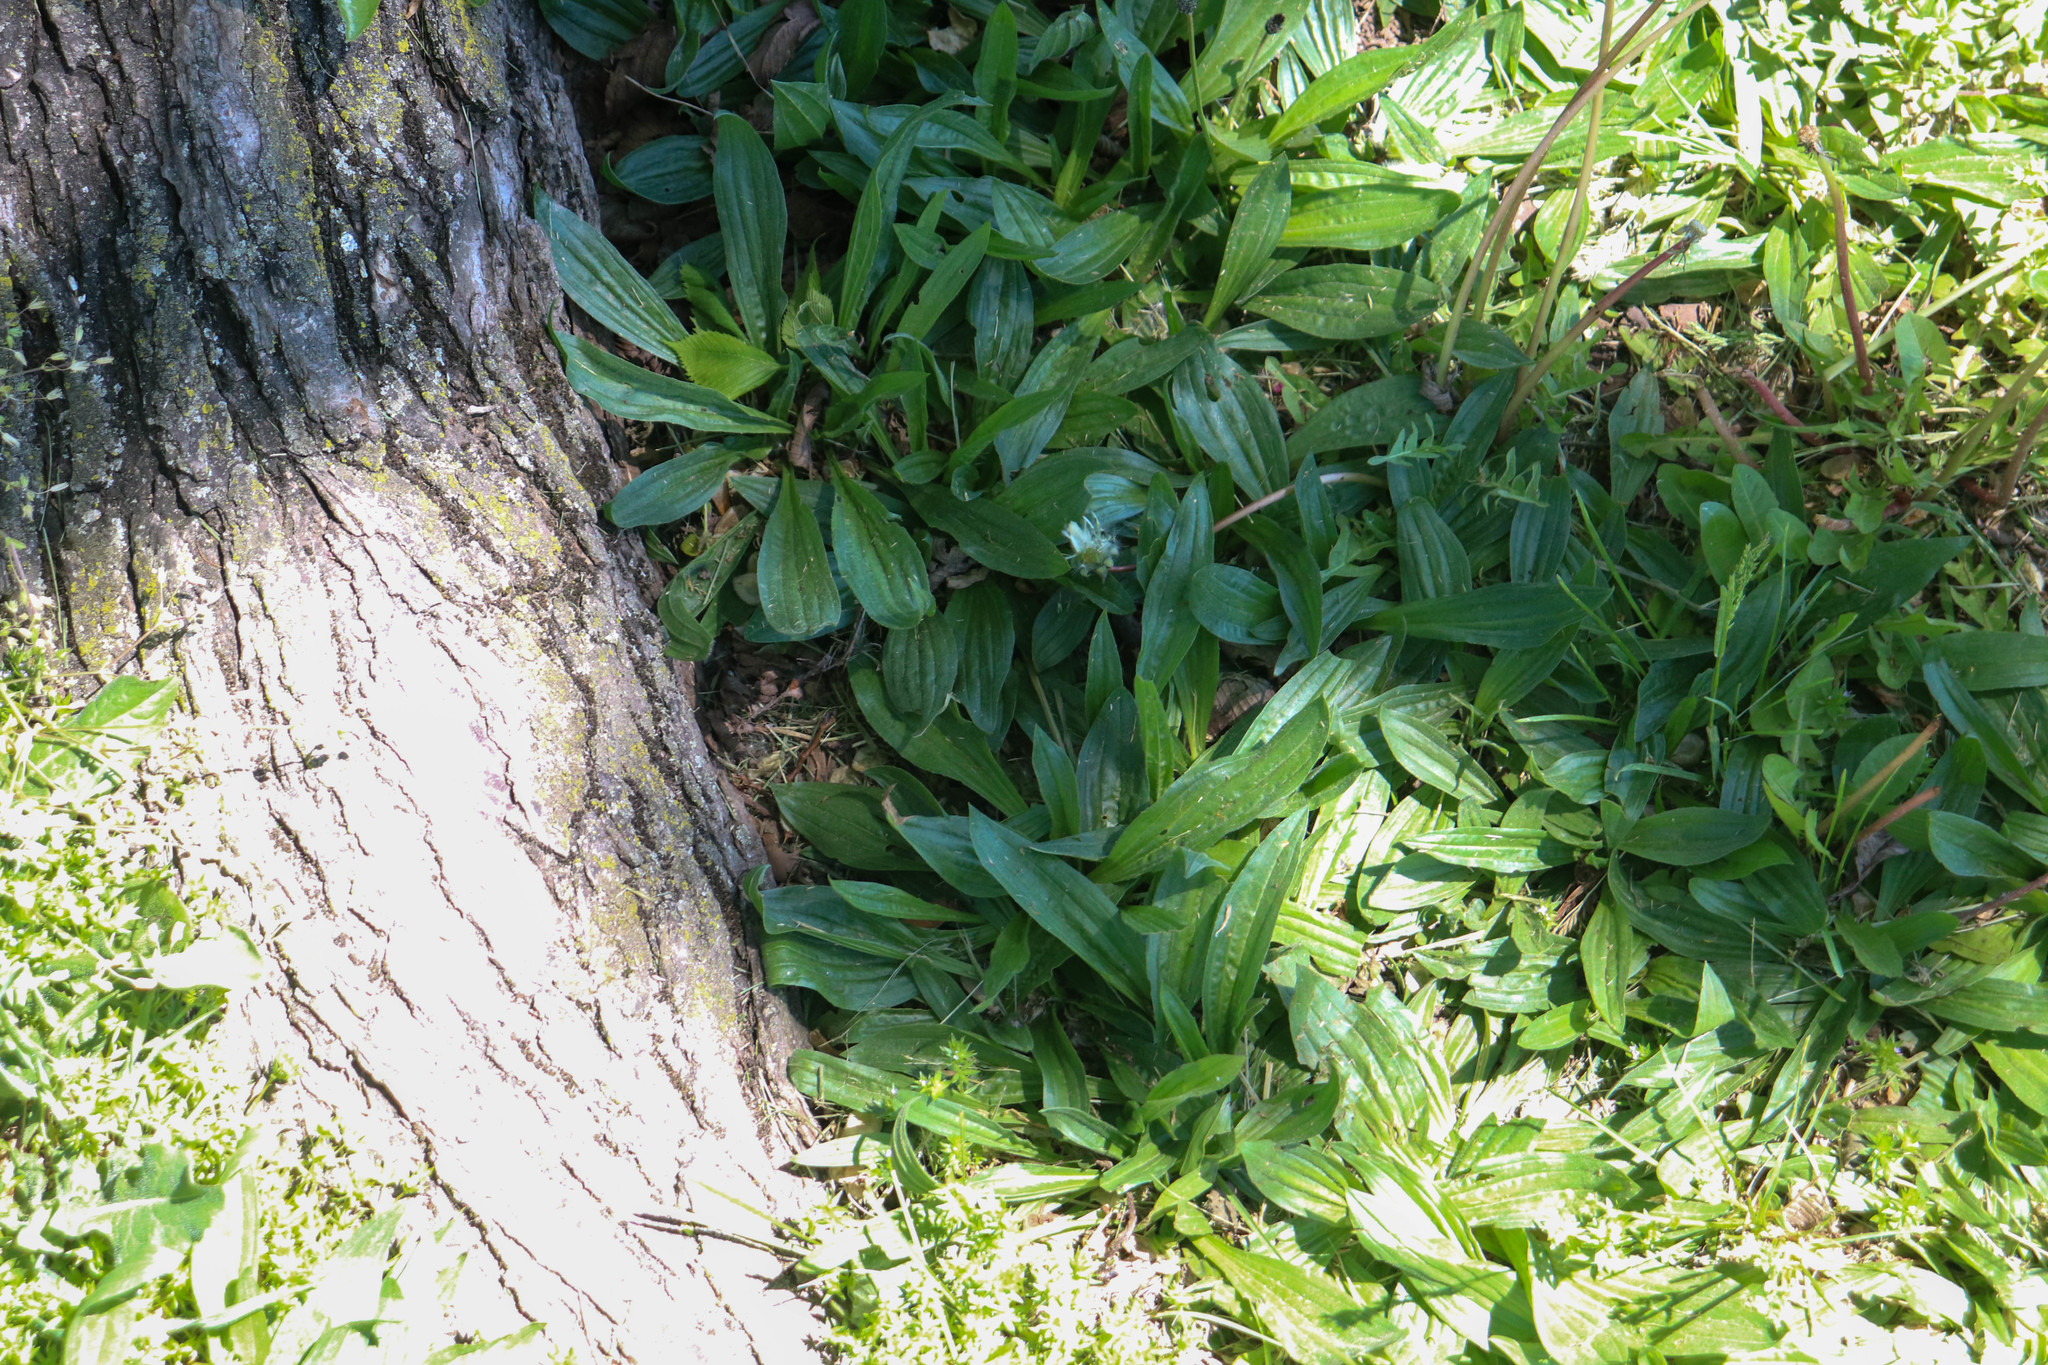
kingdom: Plantae
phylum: Tracheophyta
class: Magnoliopsida
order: Lamiales
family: Plantaginaceae
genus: Plantago
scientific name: Plantago lanceolata
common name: Ribwort plantain
